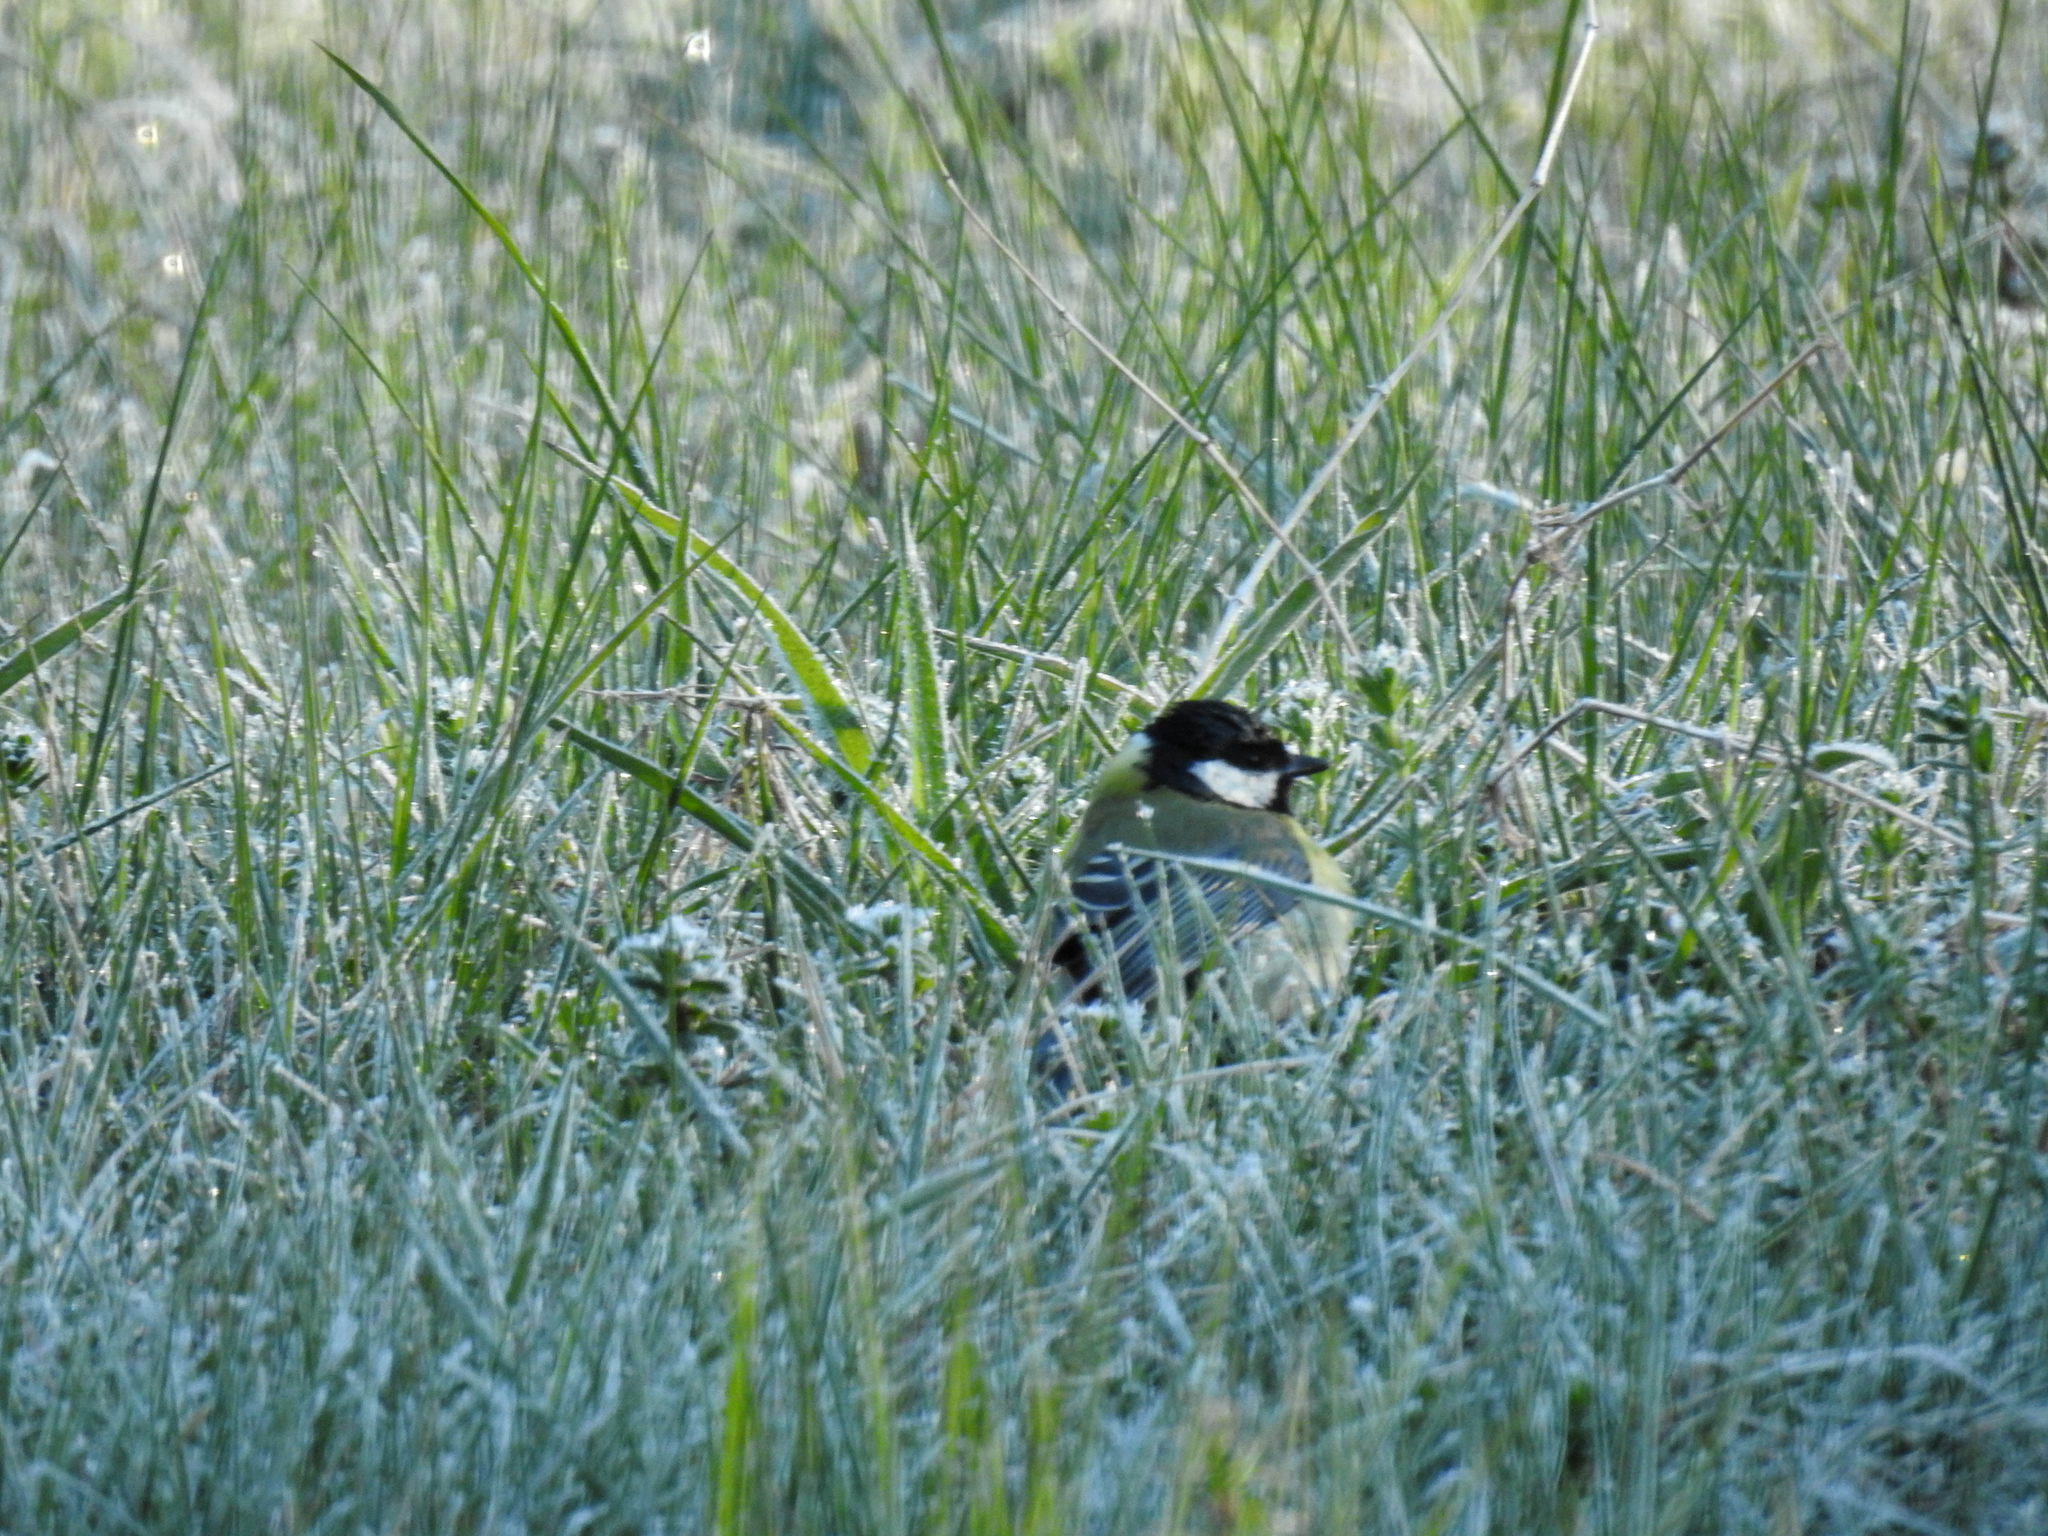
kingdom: Animalia
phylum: Chordata
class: Aves
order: Passeriformes
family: Paridae
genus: Parus
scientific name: Parus major
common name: Great tit
